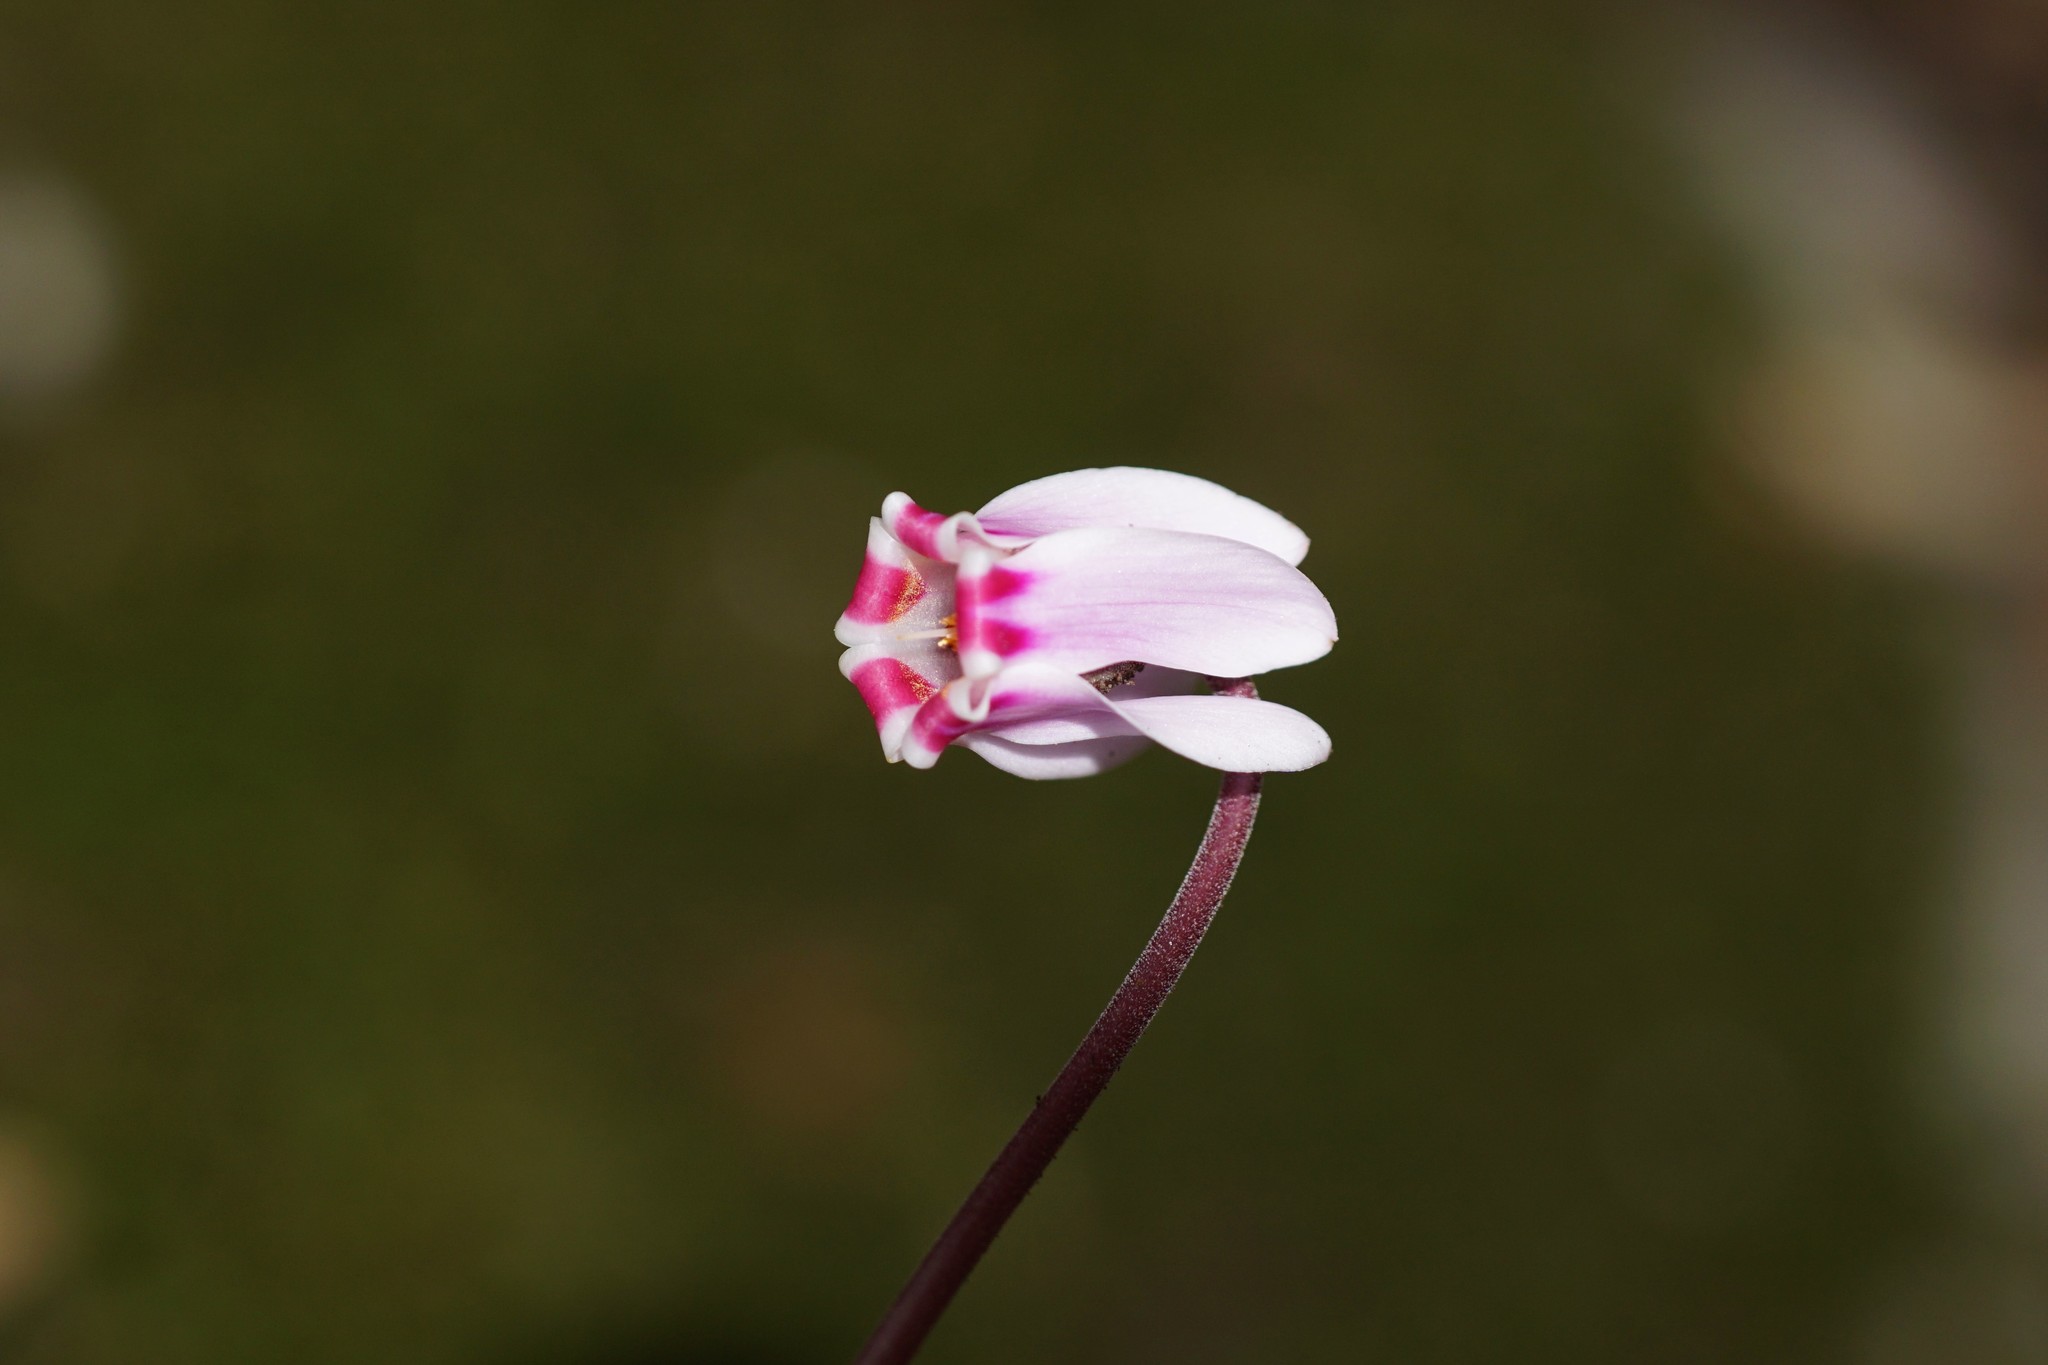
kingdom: Plantae
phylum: Tracheophyta
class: Magnoliopsida
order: Ericales
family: Primulaceae
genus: Cyclamen
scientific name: Cyclamen hederifolium
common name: Sowbread
